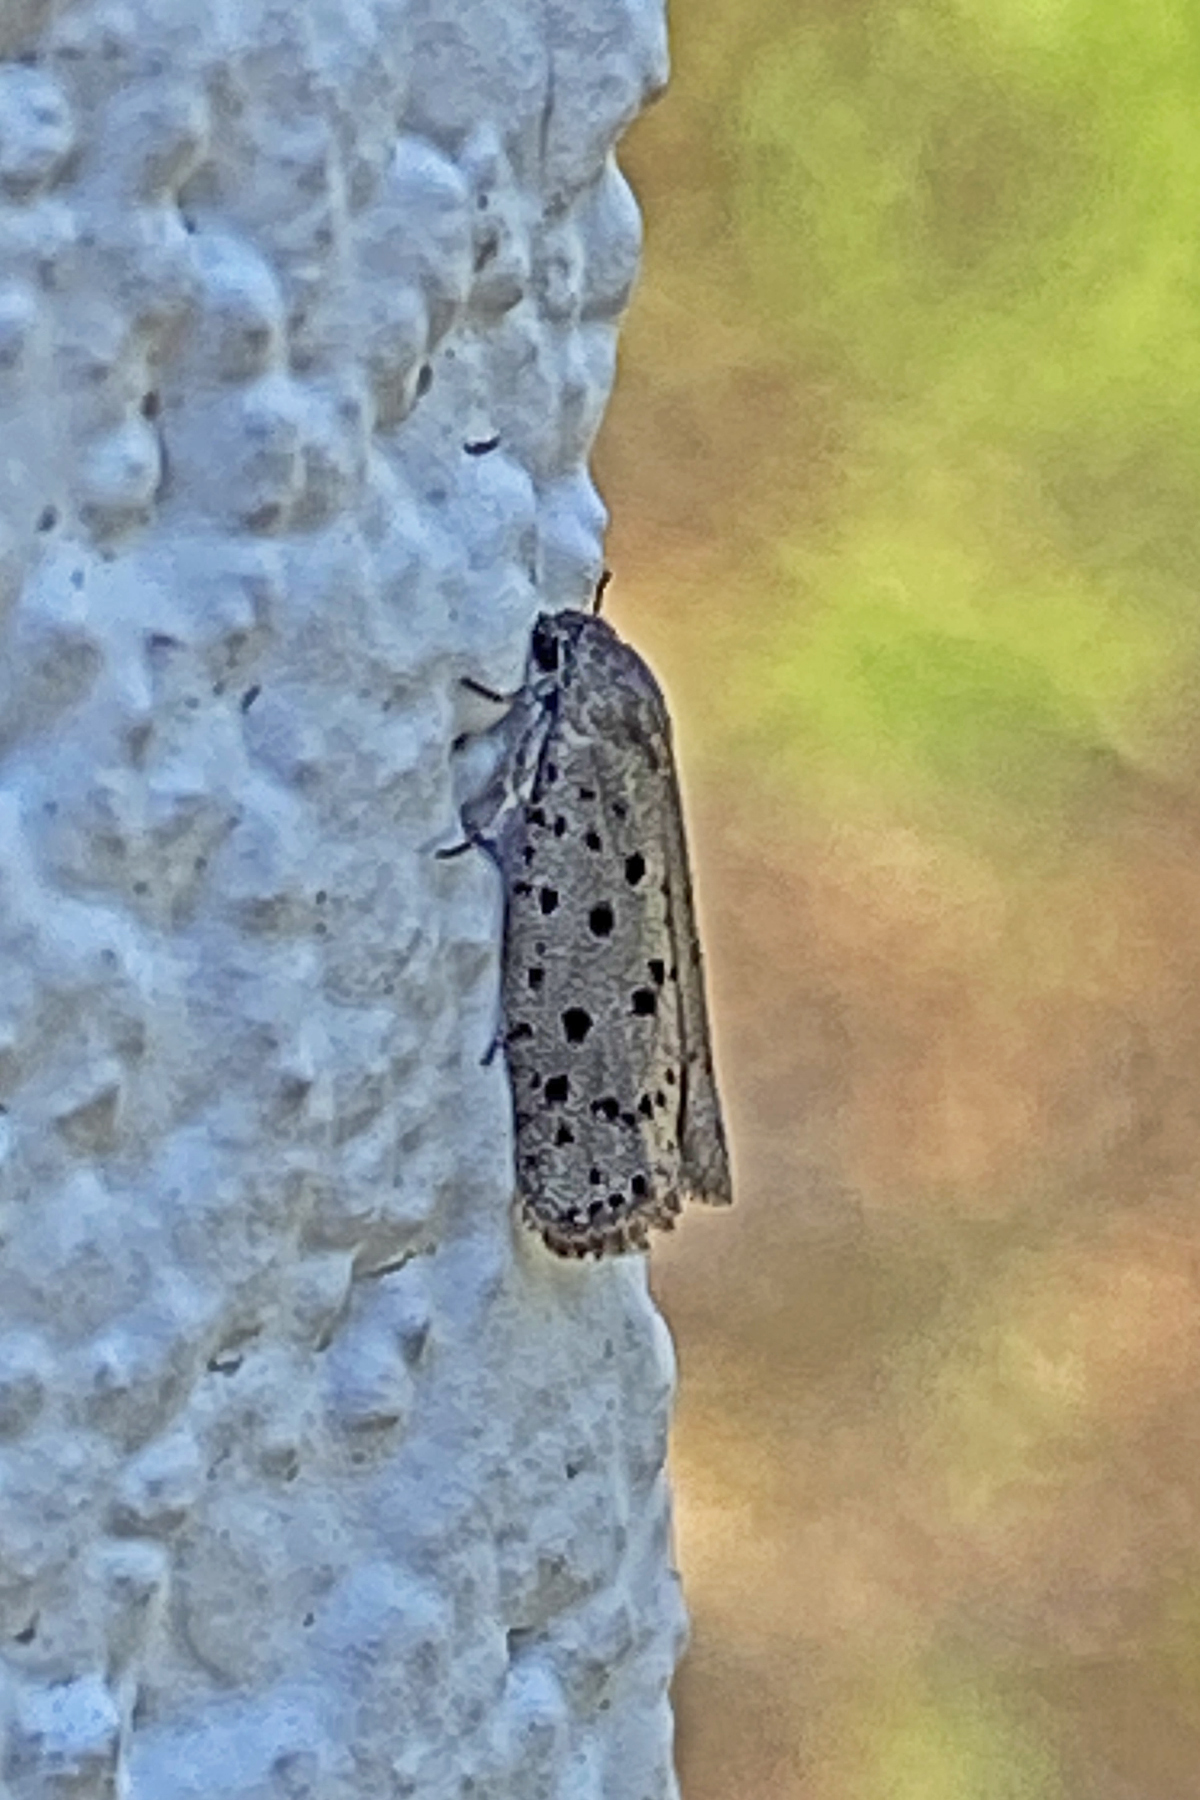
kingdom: Animalia
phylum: Arthropoda
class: Insecta
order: Lepidoptera
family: Galacticidae
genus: Homadaula
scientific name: Homadaula anisocentra
